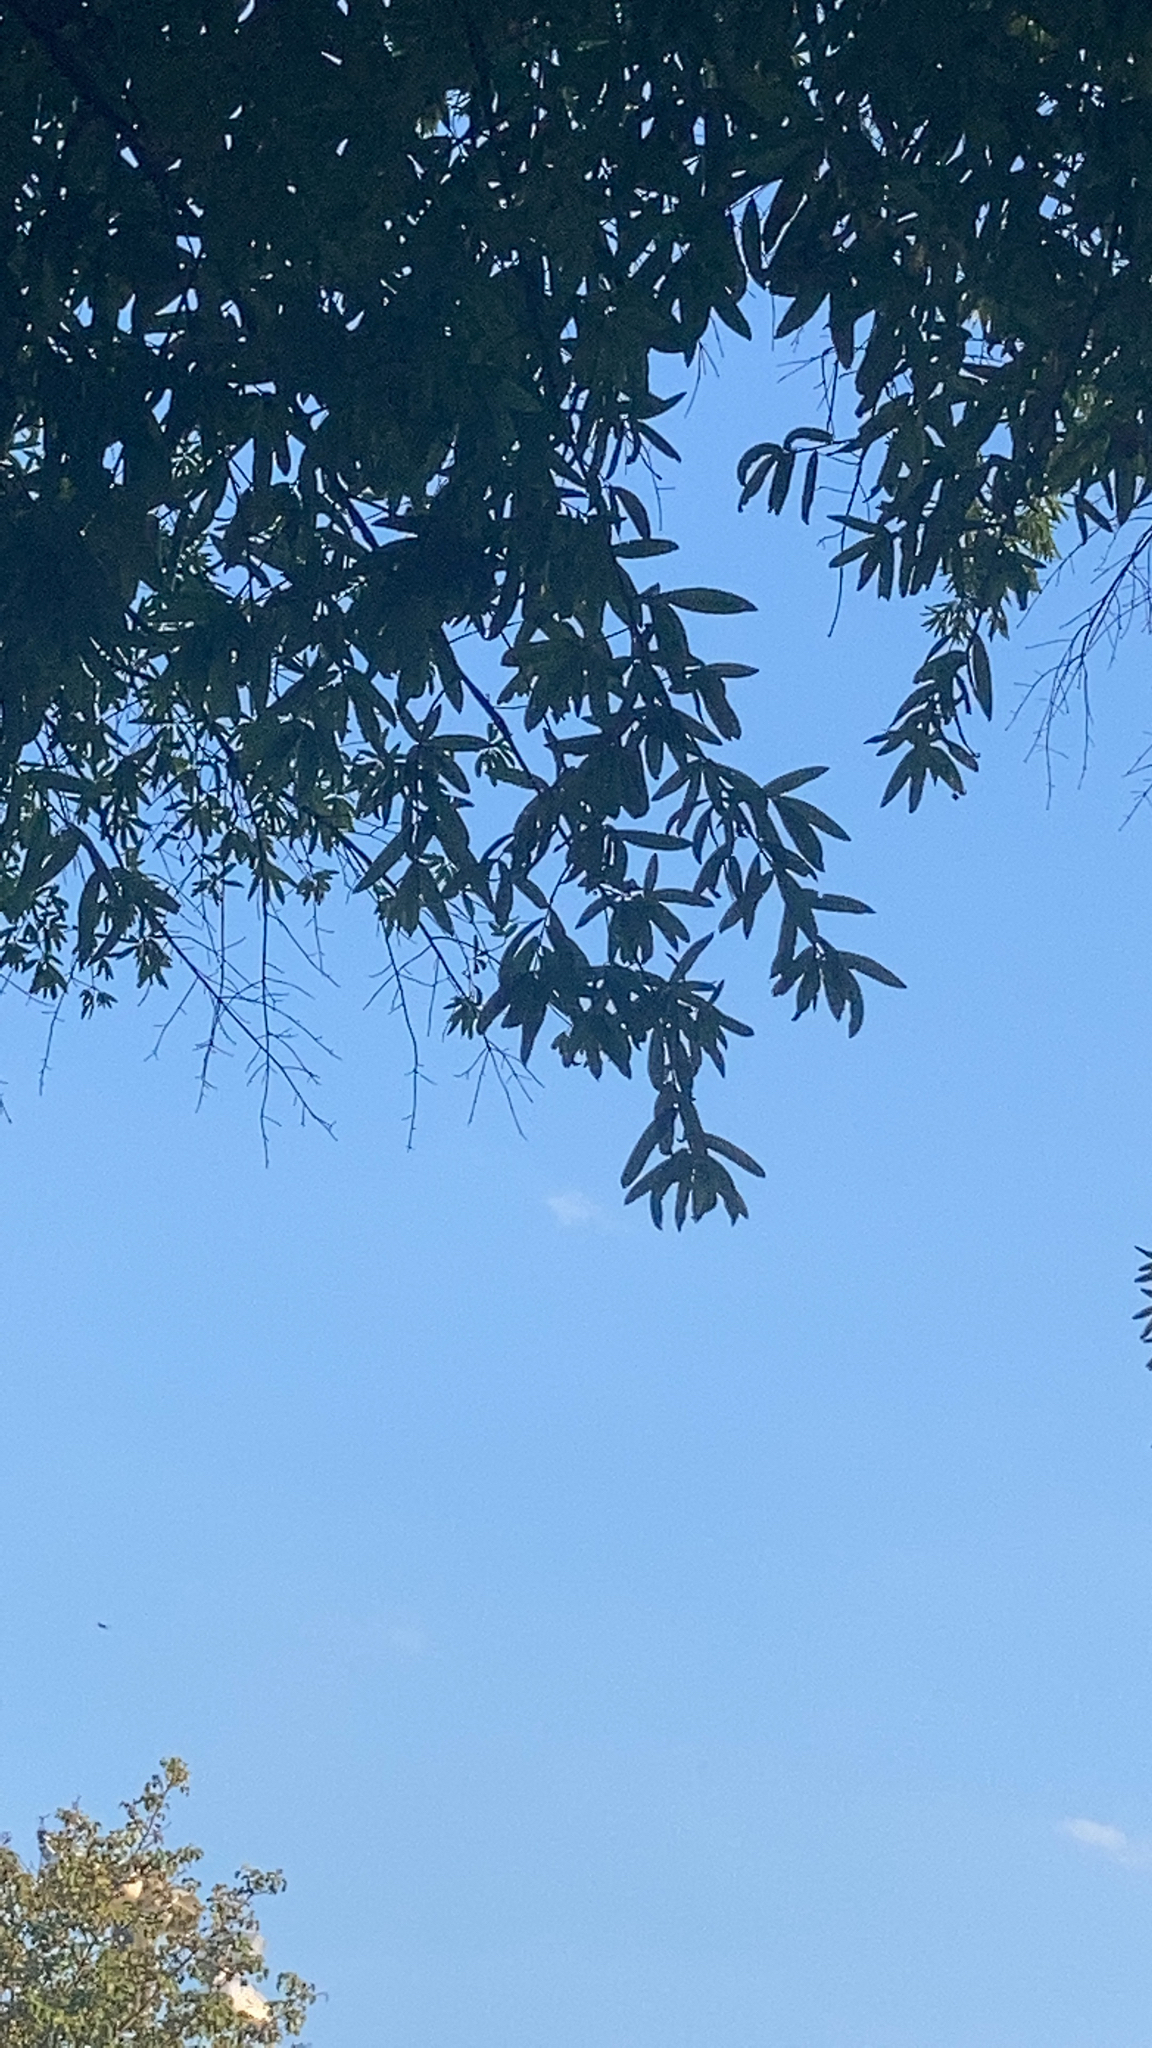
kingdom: Plantae
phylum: Tracheophyta
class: Magnoliopsida
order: Fagales
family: Fagaceae
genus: Quercus
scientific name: Quercus phellos
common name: Willow oak
